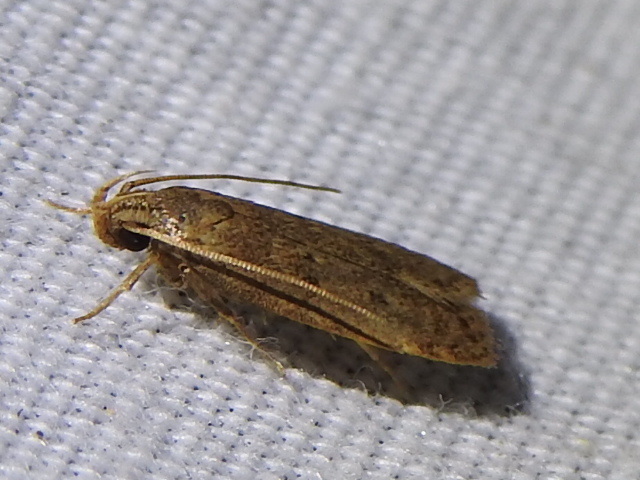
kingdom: Animalia
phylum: Arthropoda
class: Insecta
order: Lepidoptera
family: Autostichidae
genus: Autosticha
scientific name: Autosticha kyotensis
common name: Kyoto moth
